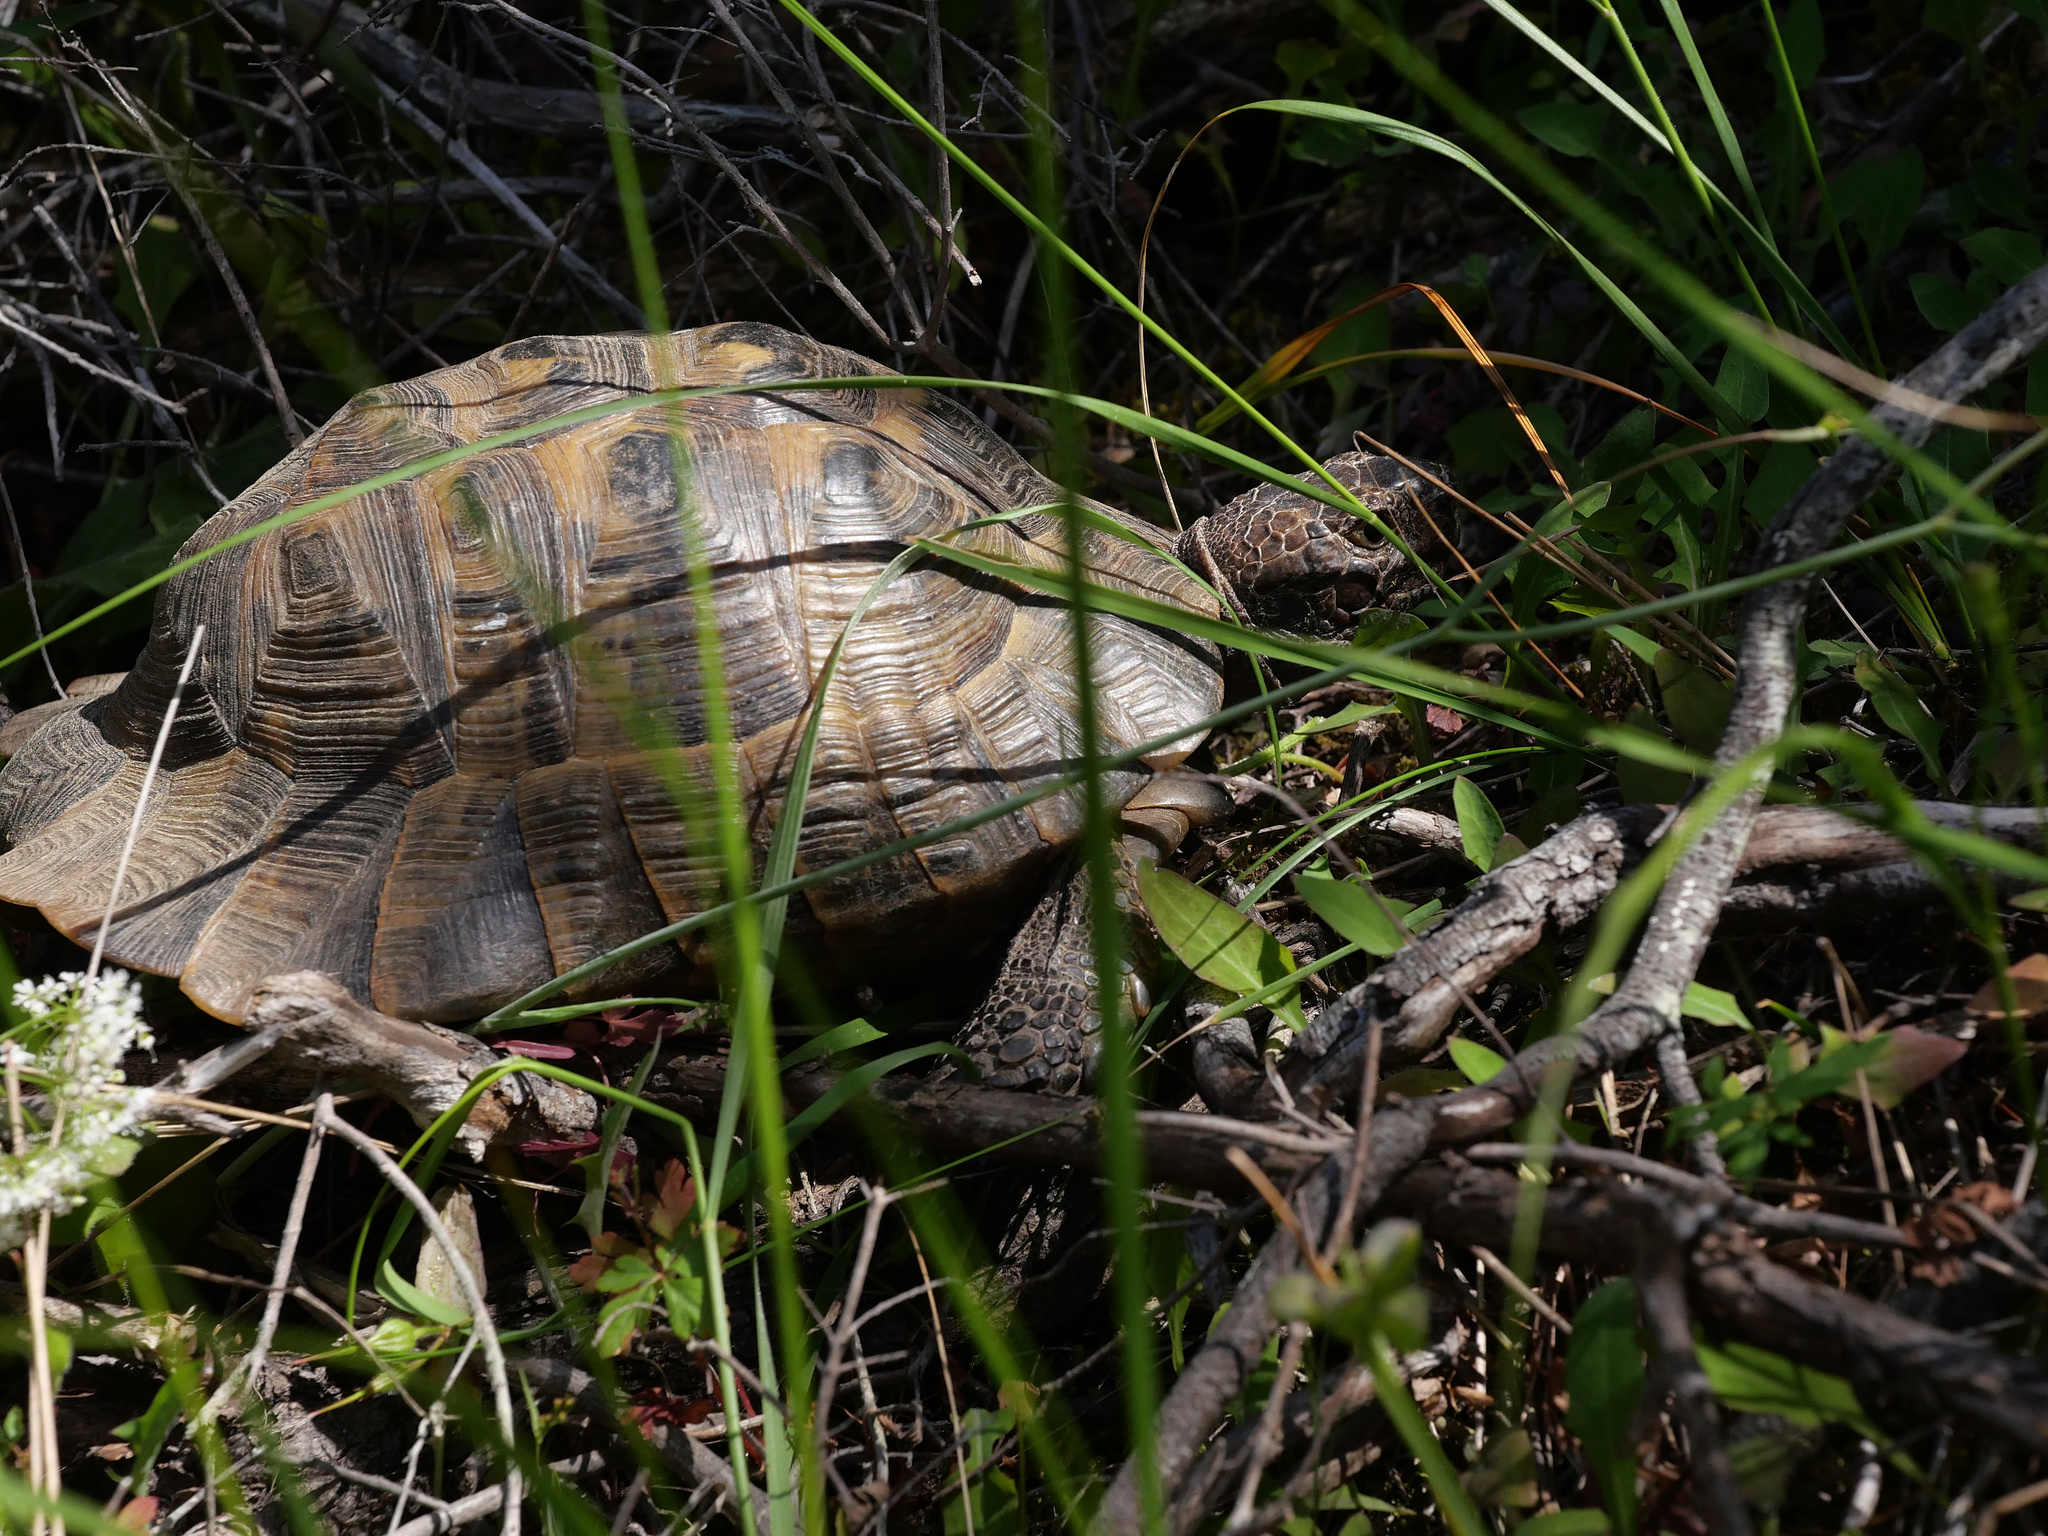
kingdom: Animalia
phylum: Chordata
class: Testudines
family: Testudinidae
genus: Testudo
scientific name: Testudo graeca
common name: Common tortoise
